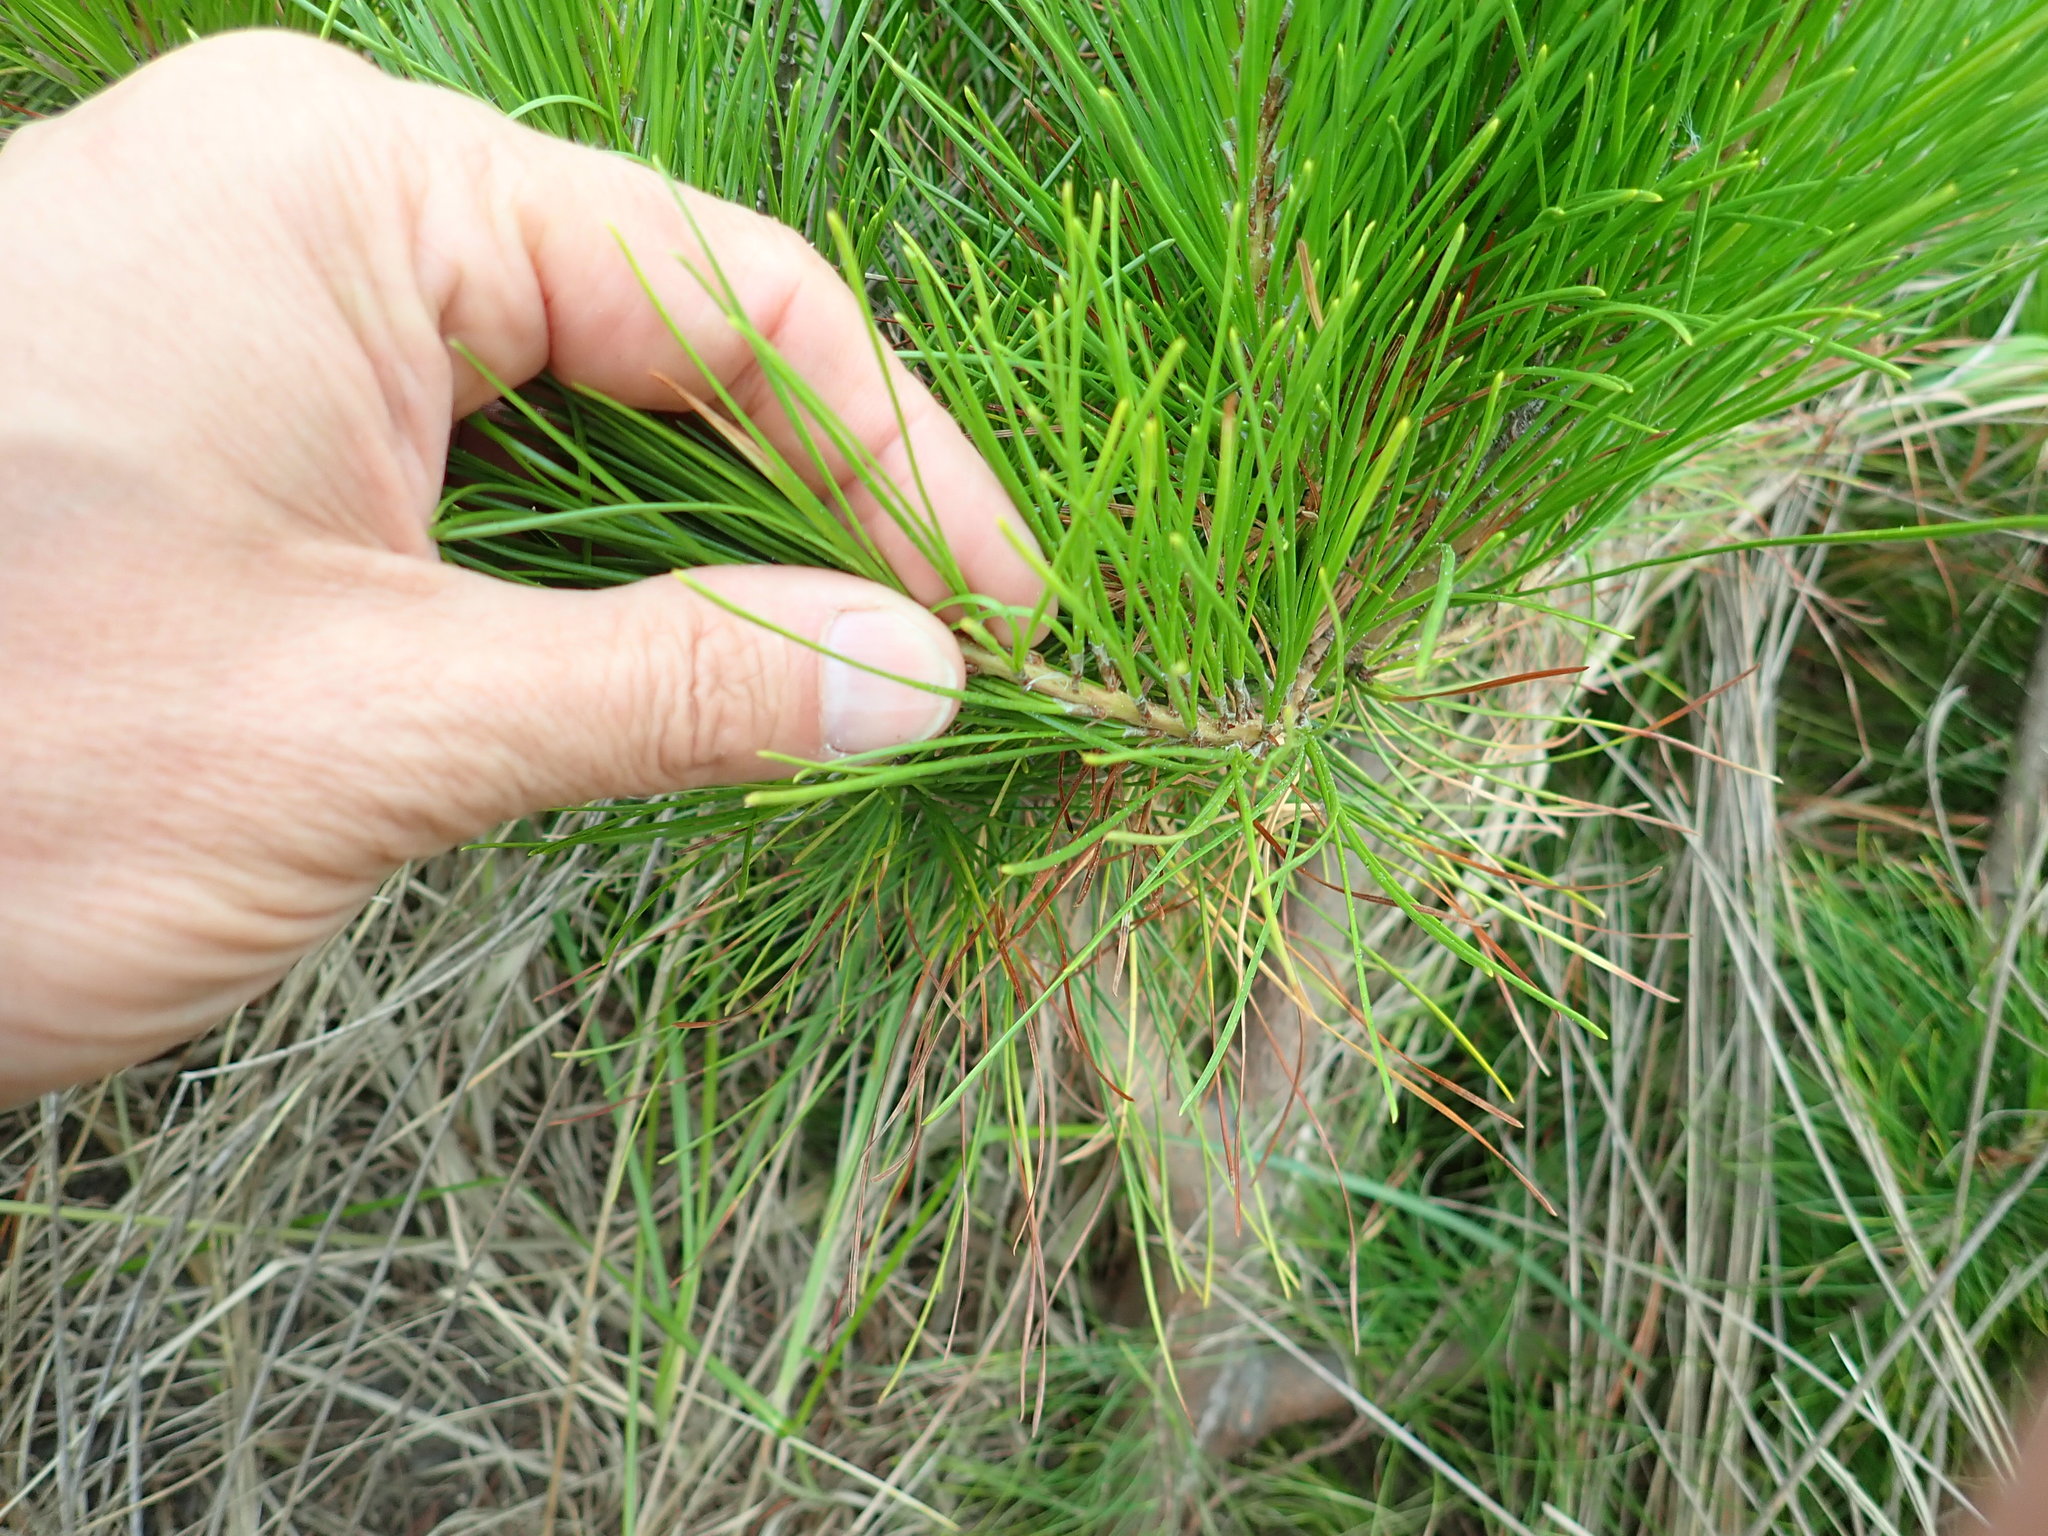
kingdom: Plantae
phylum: Tracheophyta
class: Pinopsida
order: Pinales
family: Pinaceae
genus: Pinus
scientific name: Pinus radiata
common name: Monterey pine
